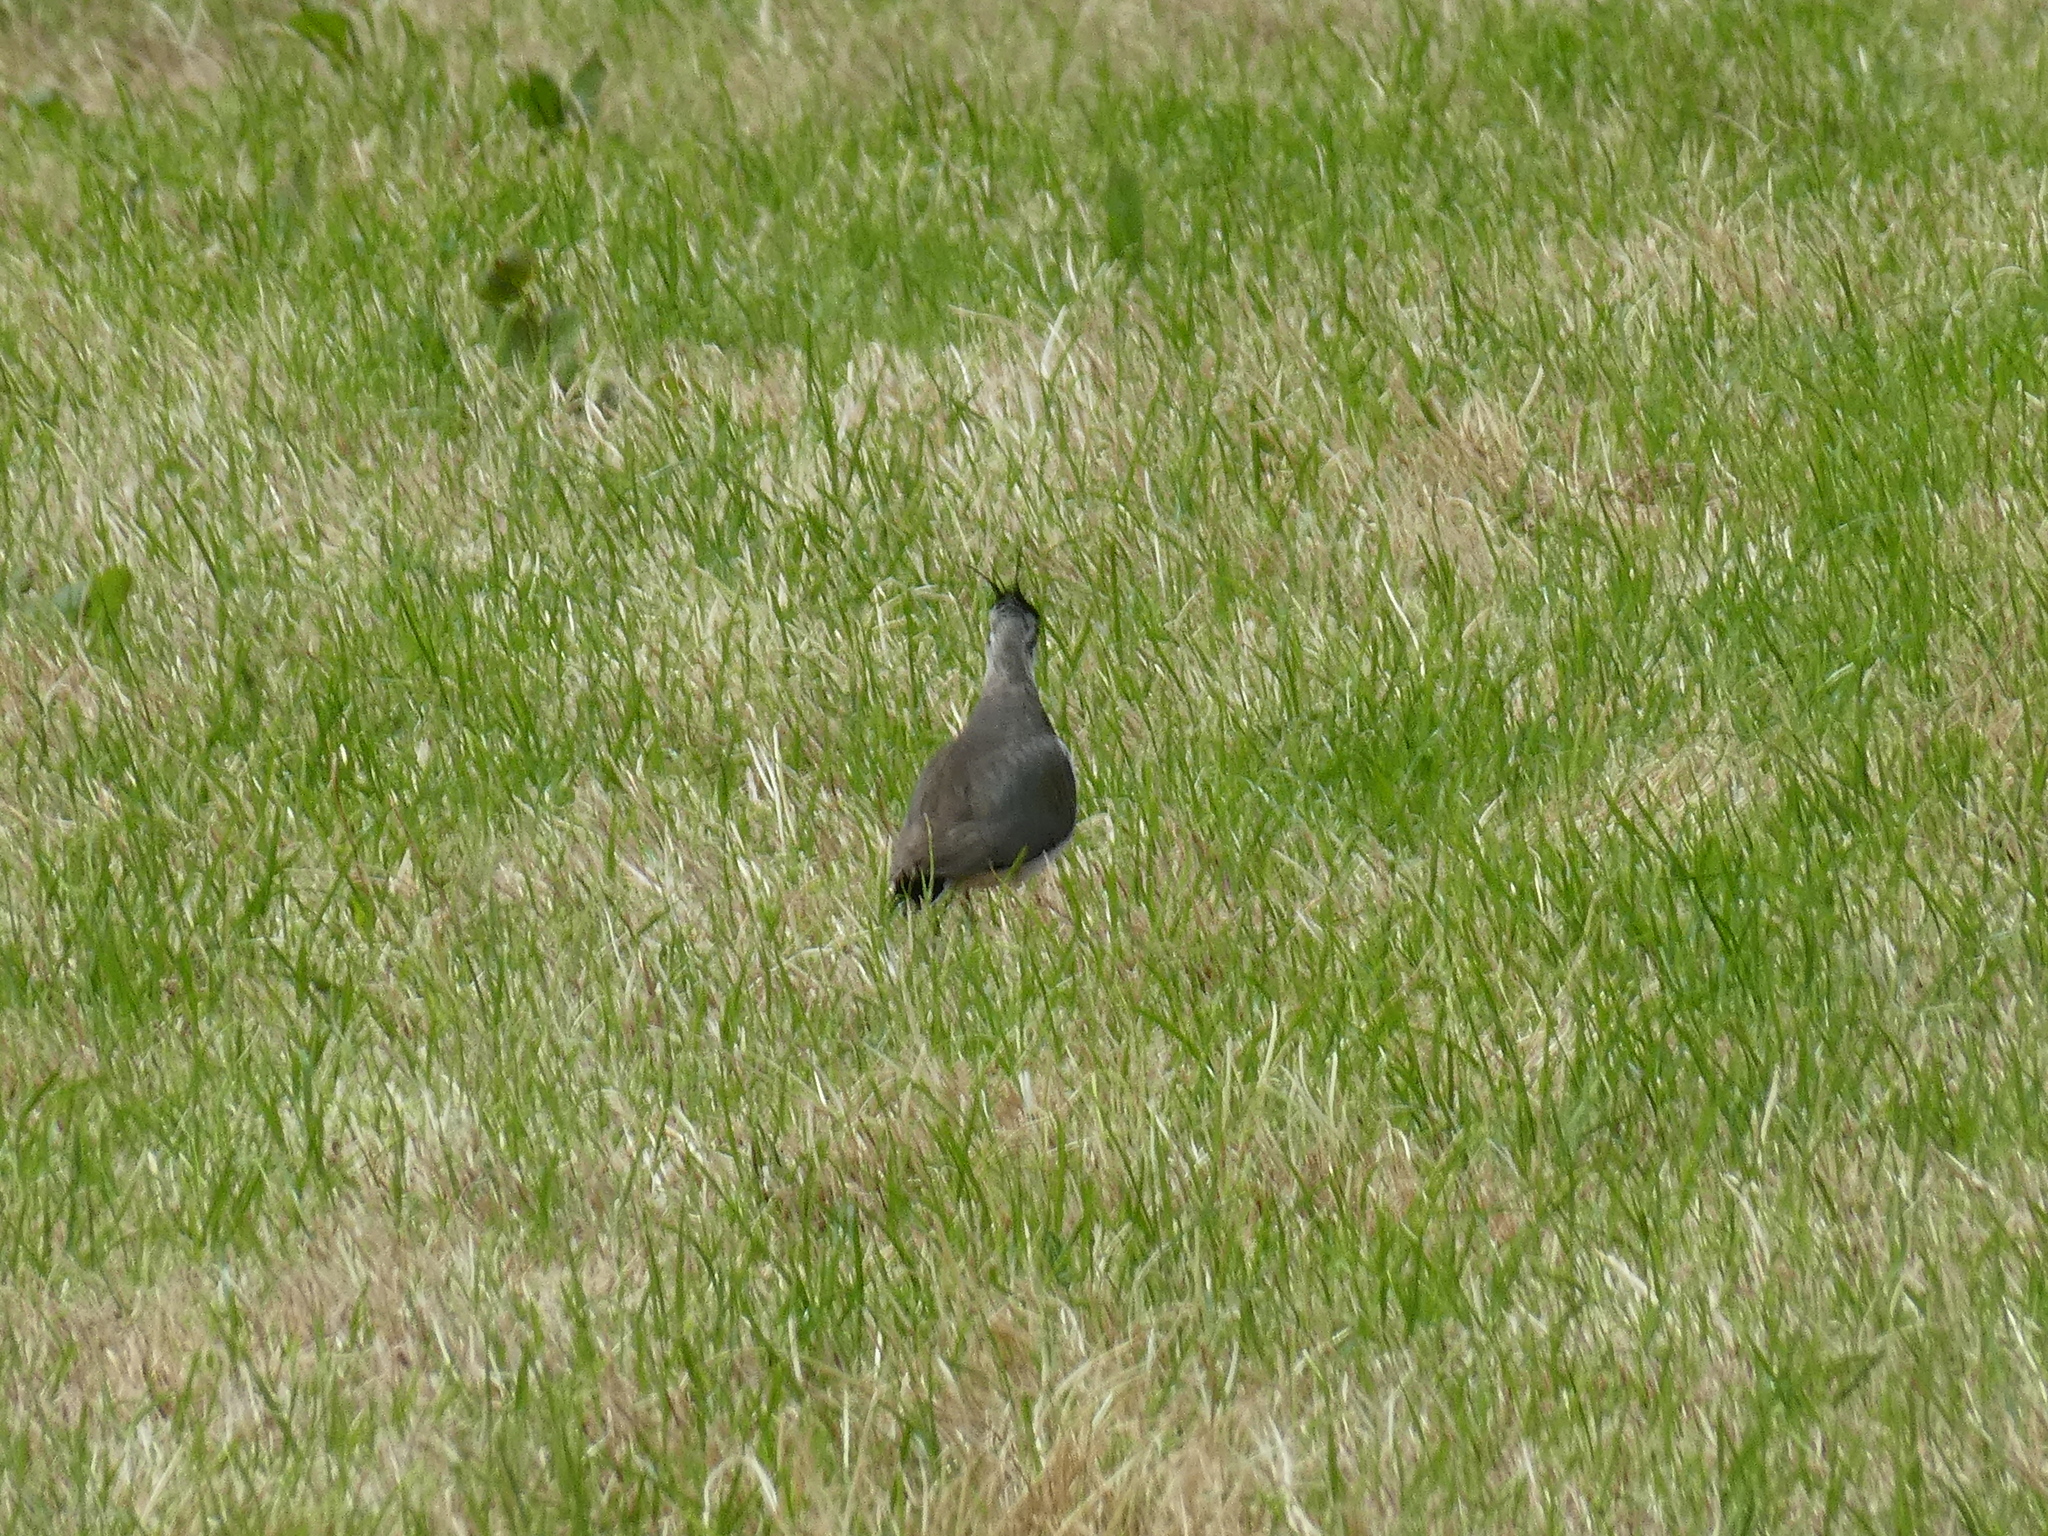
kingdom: Animalia
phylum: Chordata
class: Aves
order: Charadriiformes
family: Charadriidae
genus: Vanellus
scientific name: Vanellus vanellus
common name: Northern lapwing
